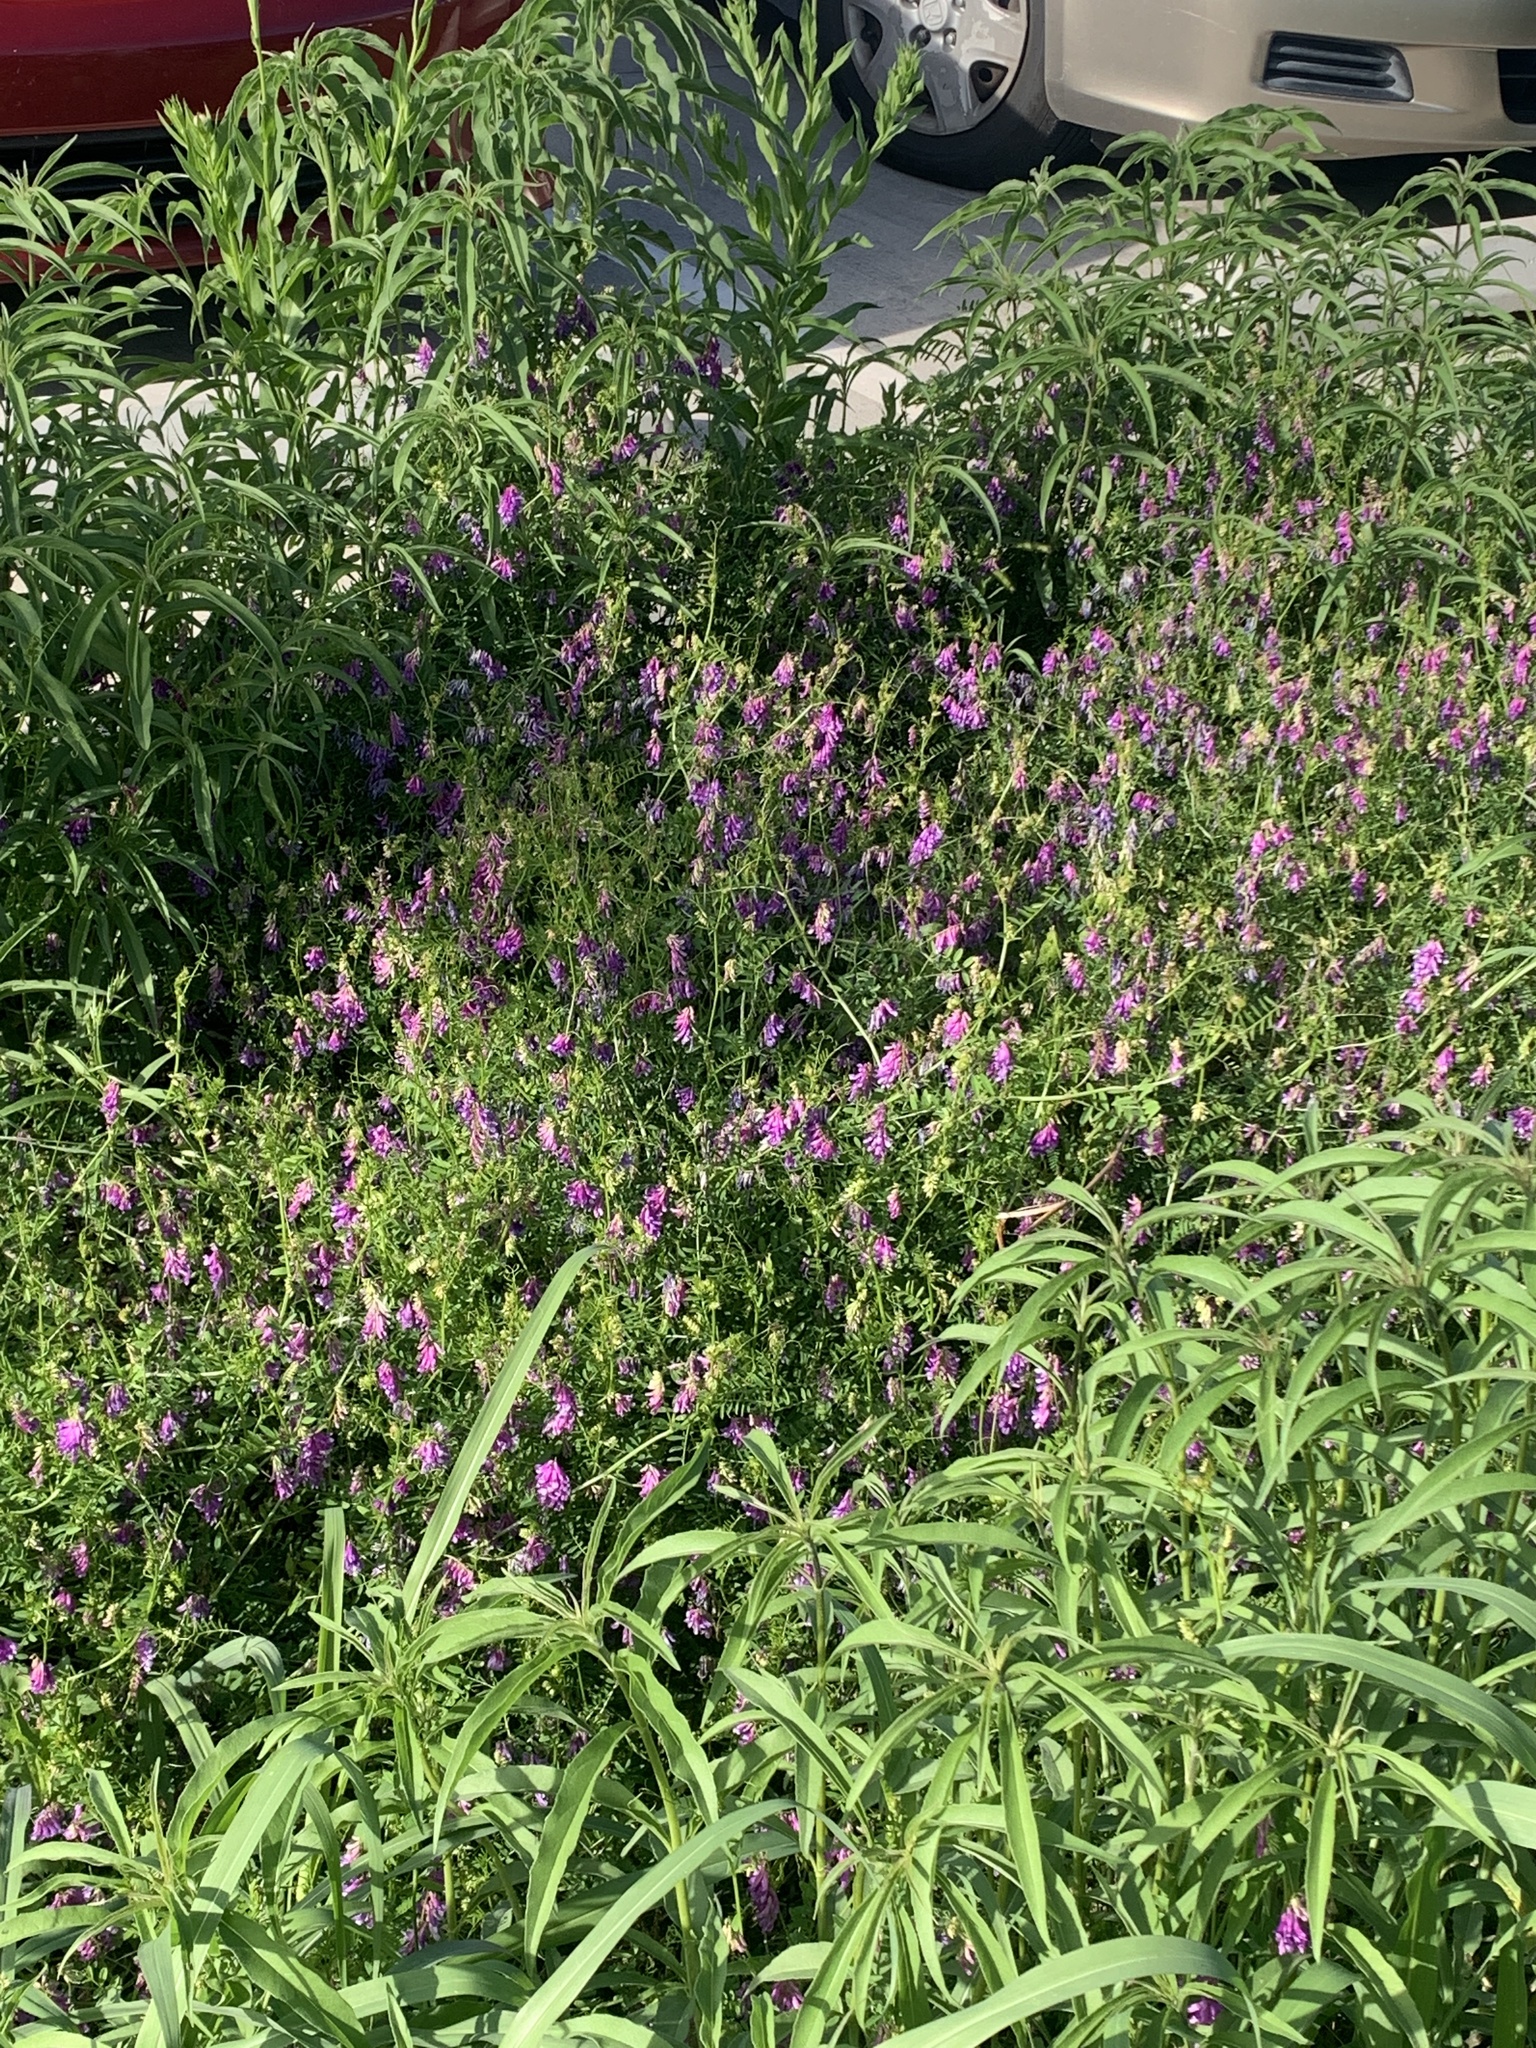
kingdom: Plantae
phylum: Tracheophyta
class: Magnoliopsida
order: Fabales
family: Fabaceae
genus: Vicia
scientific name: Vicia villosa
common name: Fodder vetch
